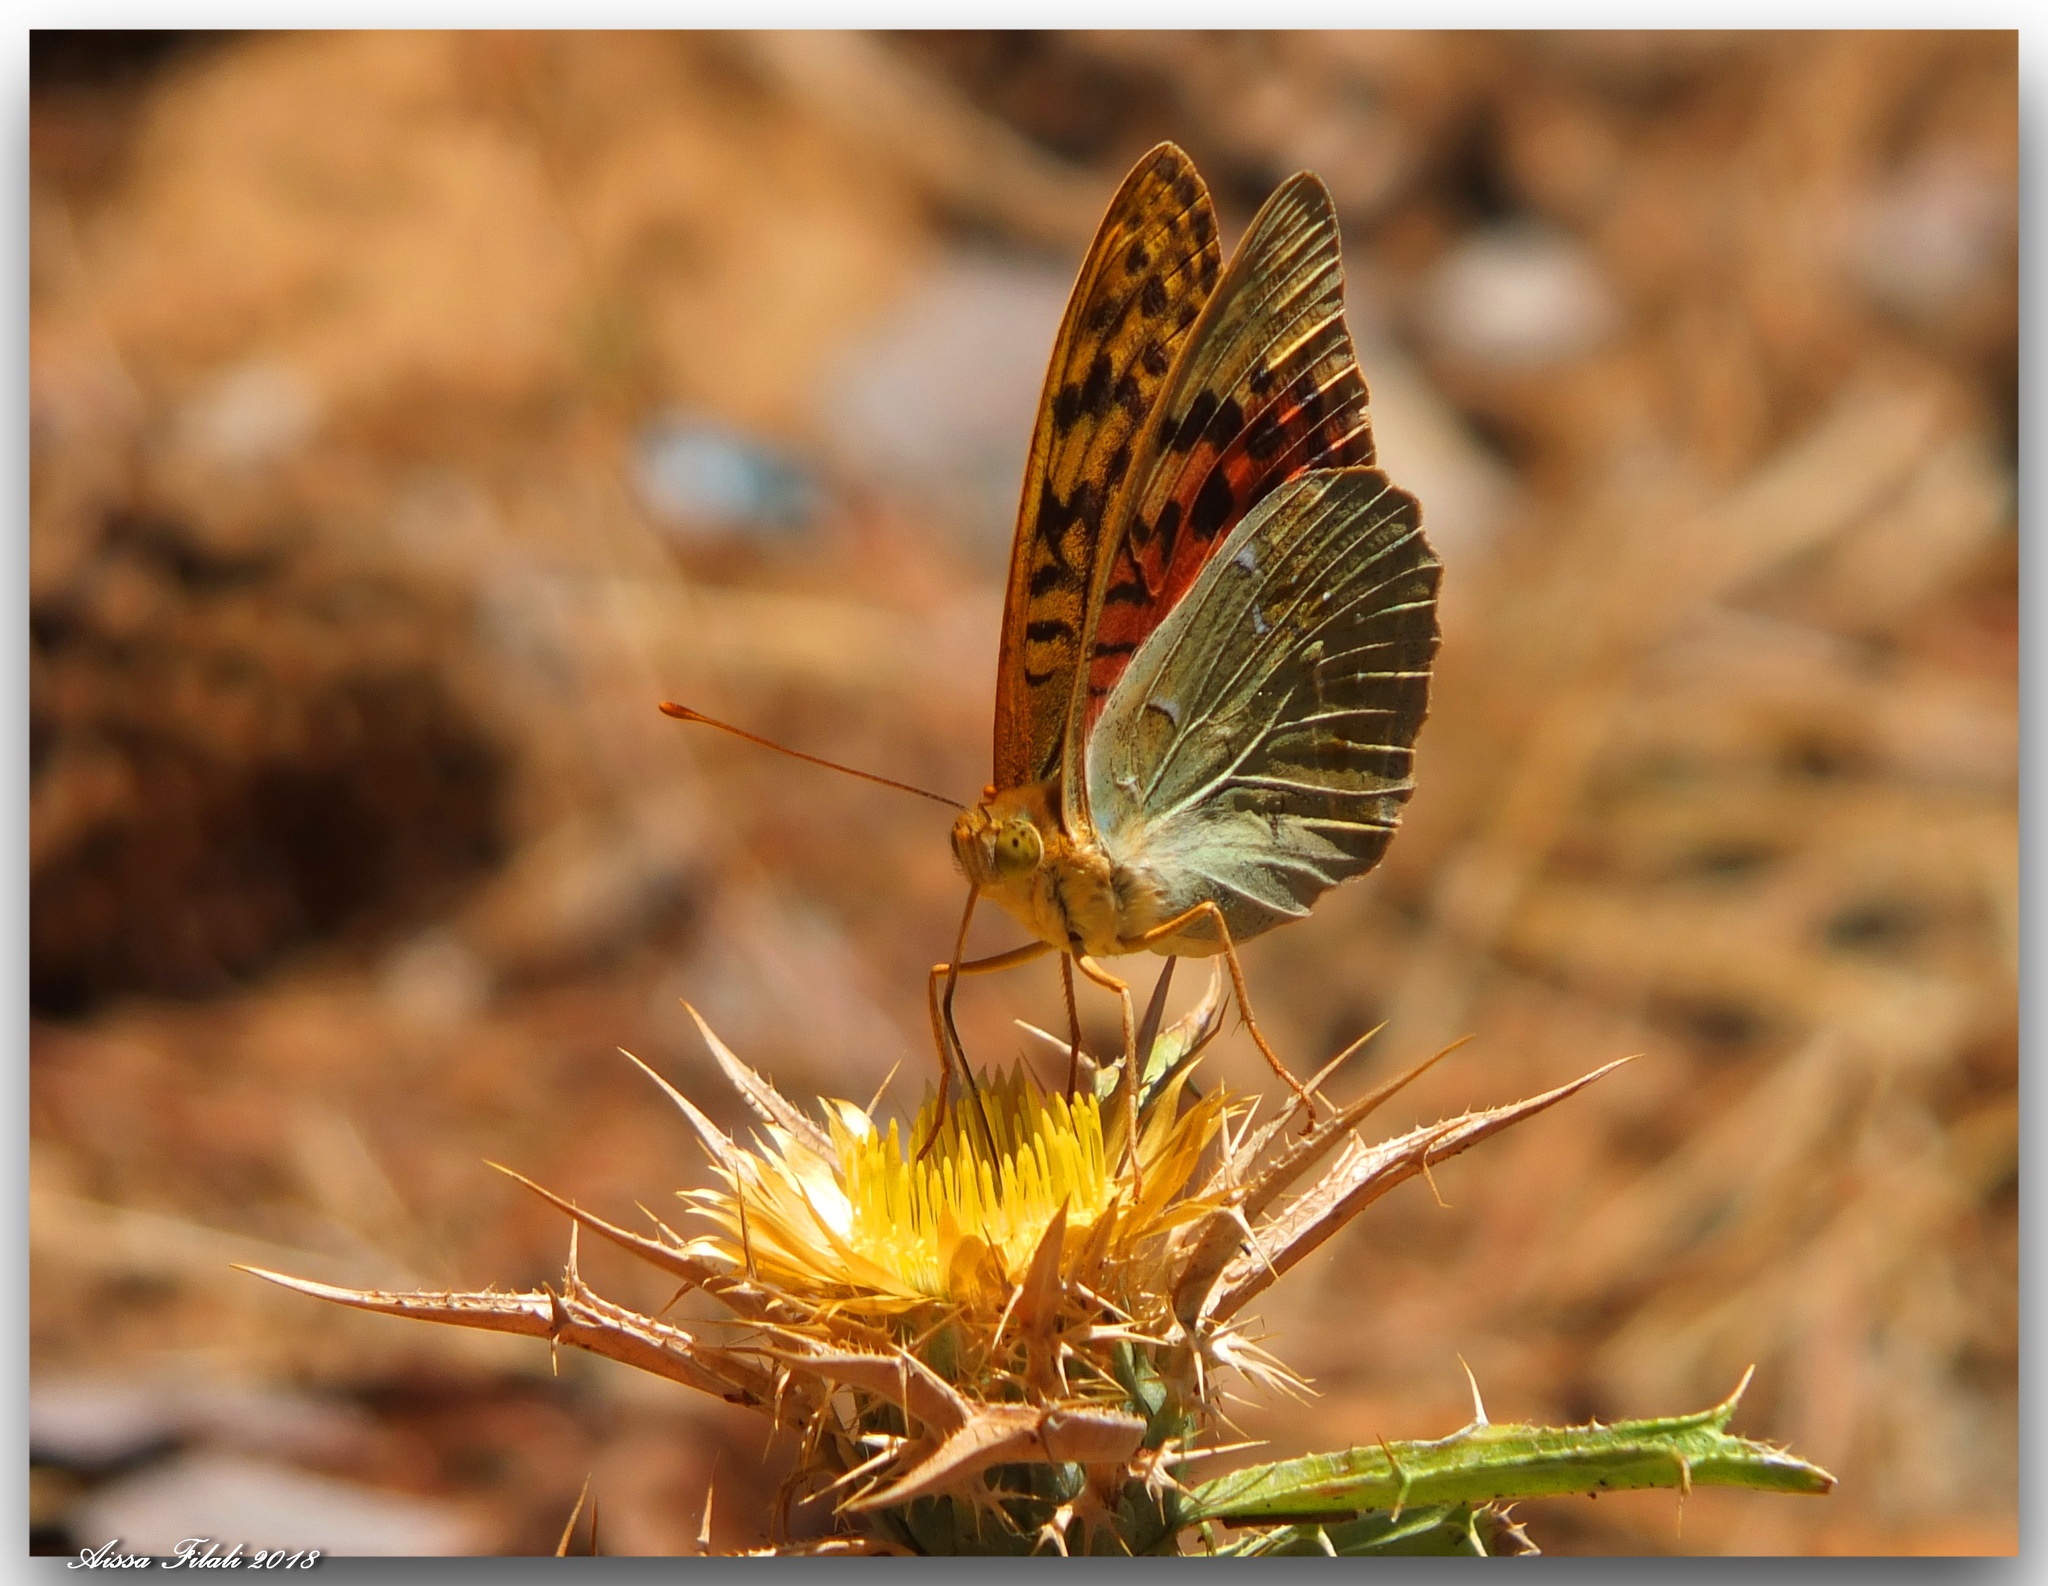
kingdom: Animalia
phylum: Arthropoda
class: Insecta
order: Lepidoptera
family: Nymphalidae
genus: Damora
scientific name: Damora pandora
